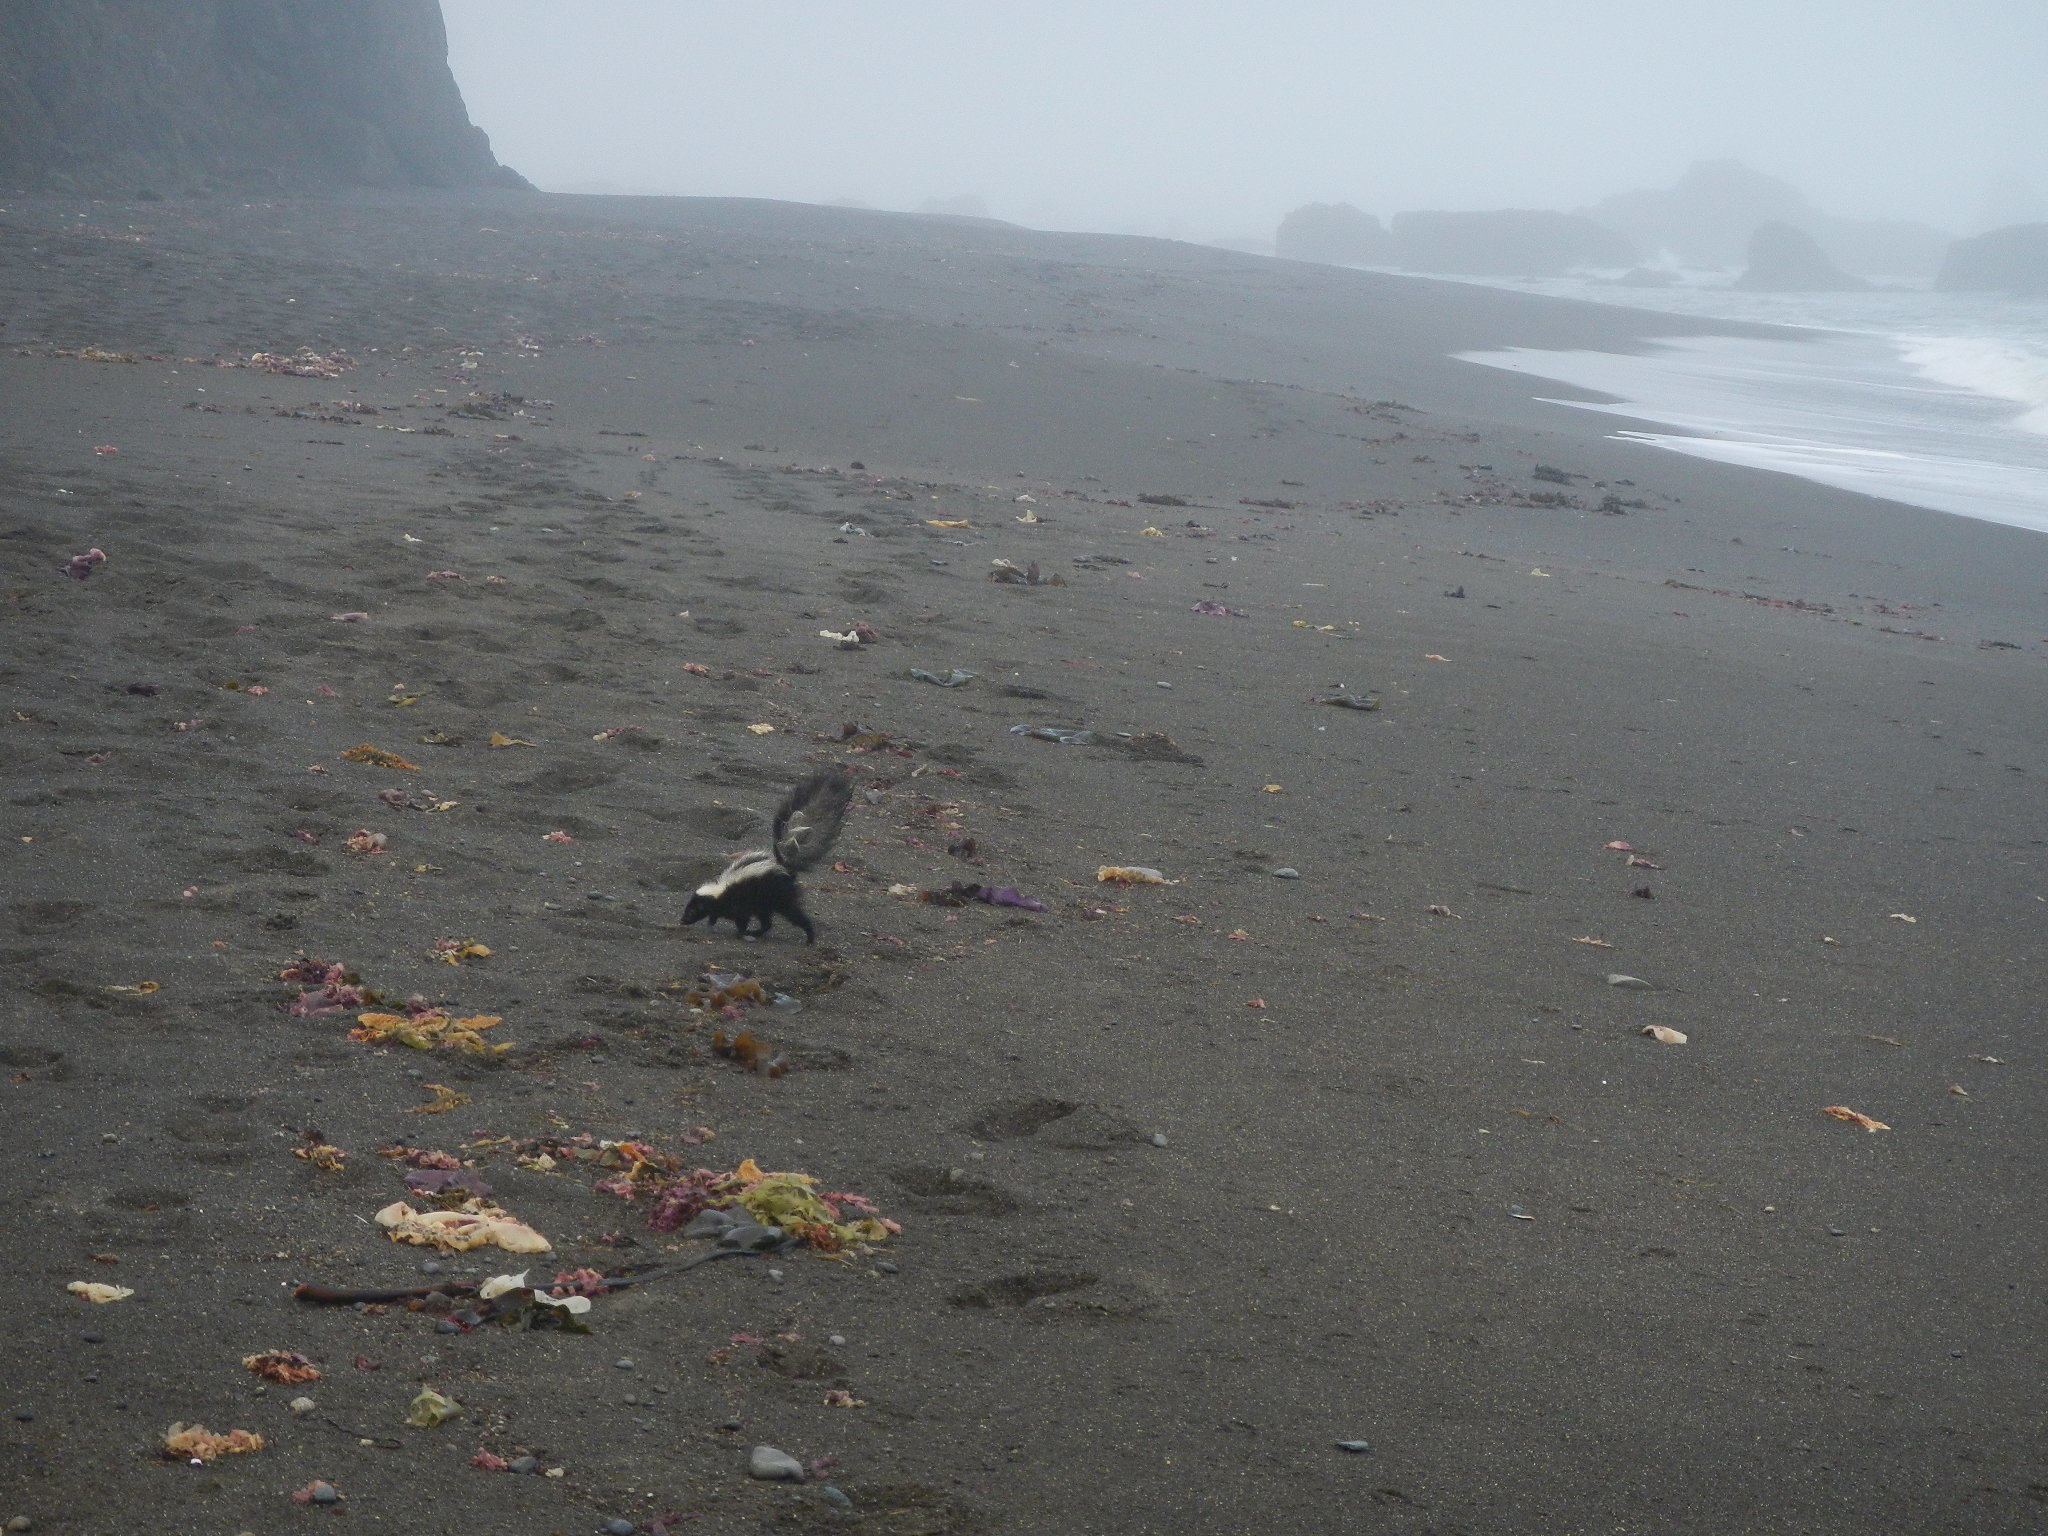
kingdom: Animalia
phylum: Chordata
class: Mammalia
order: Carnivora
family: Mephitidae
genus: Mephitis
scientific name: Mephitis mephitis
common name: Striped skunk
